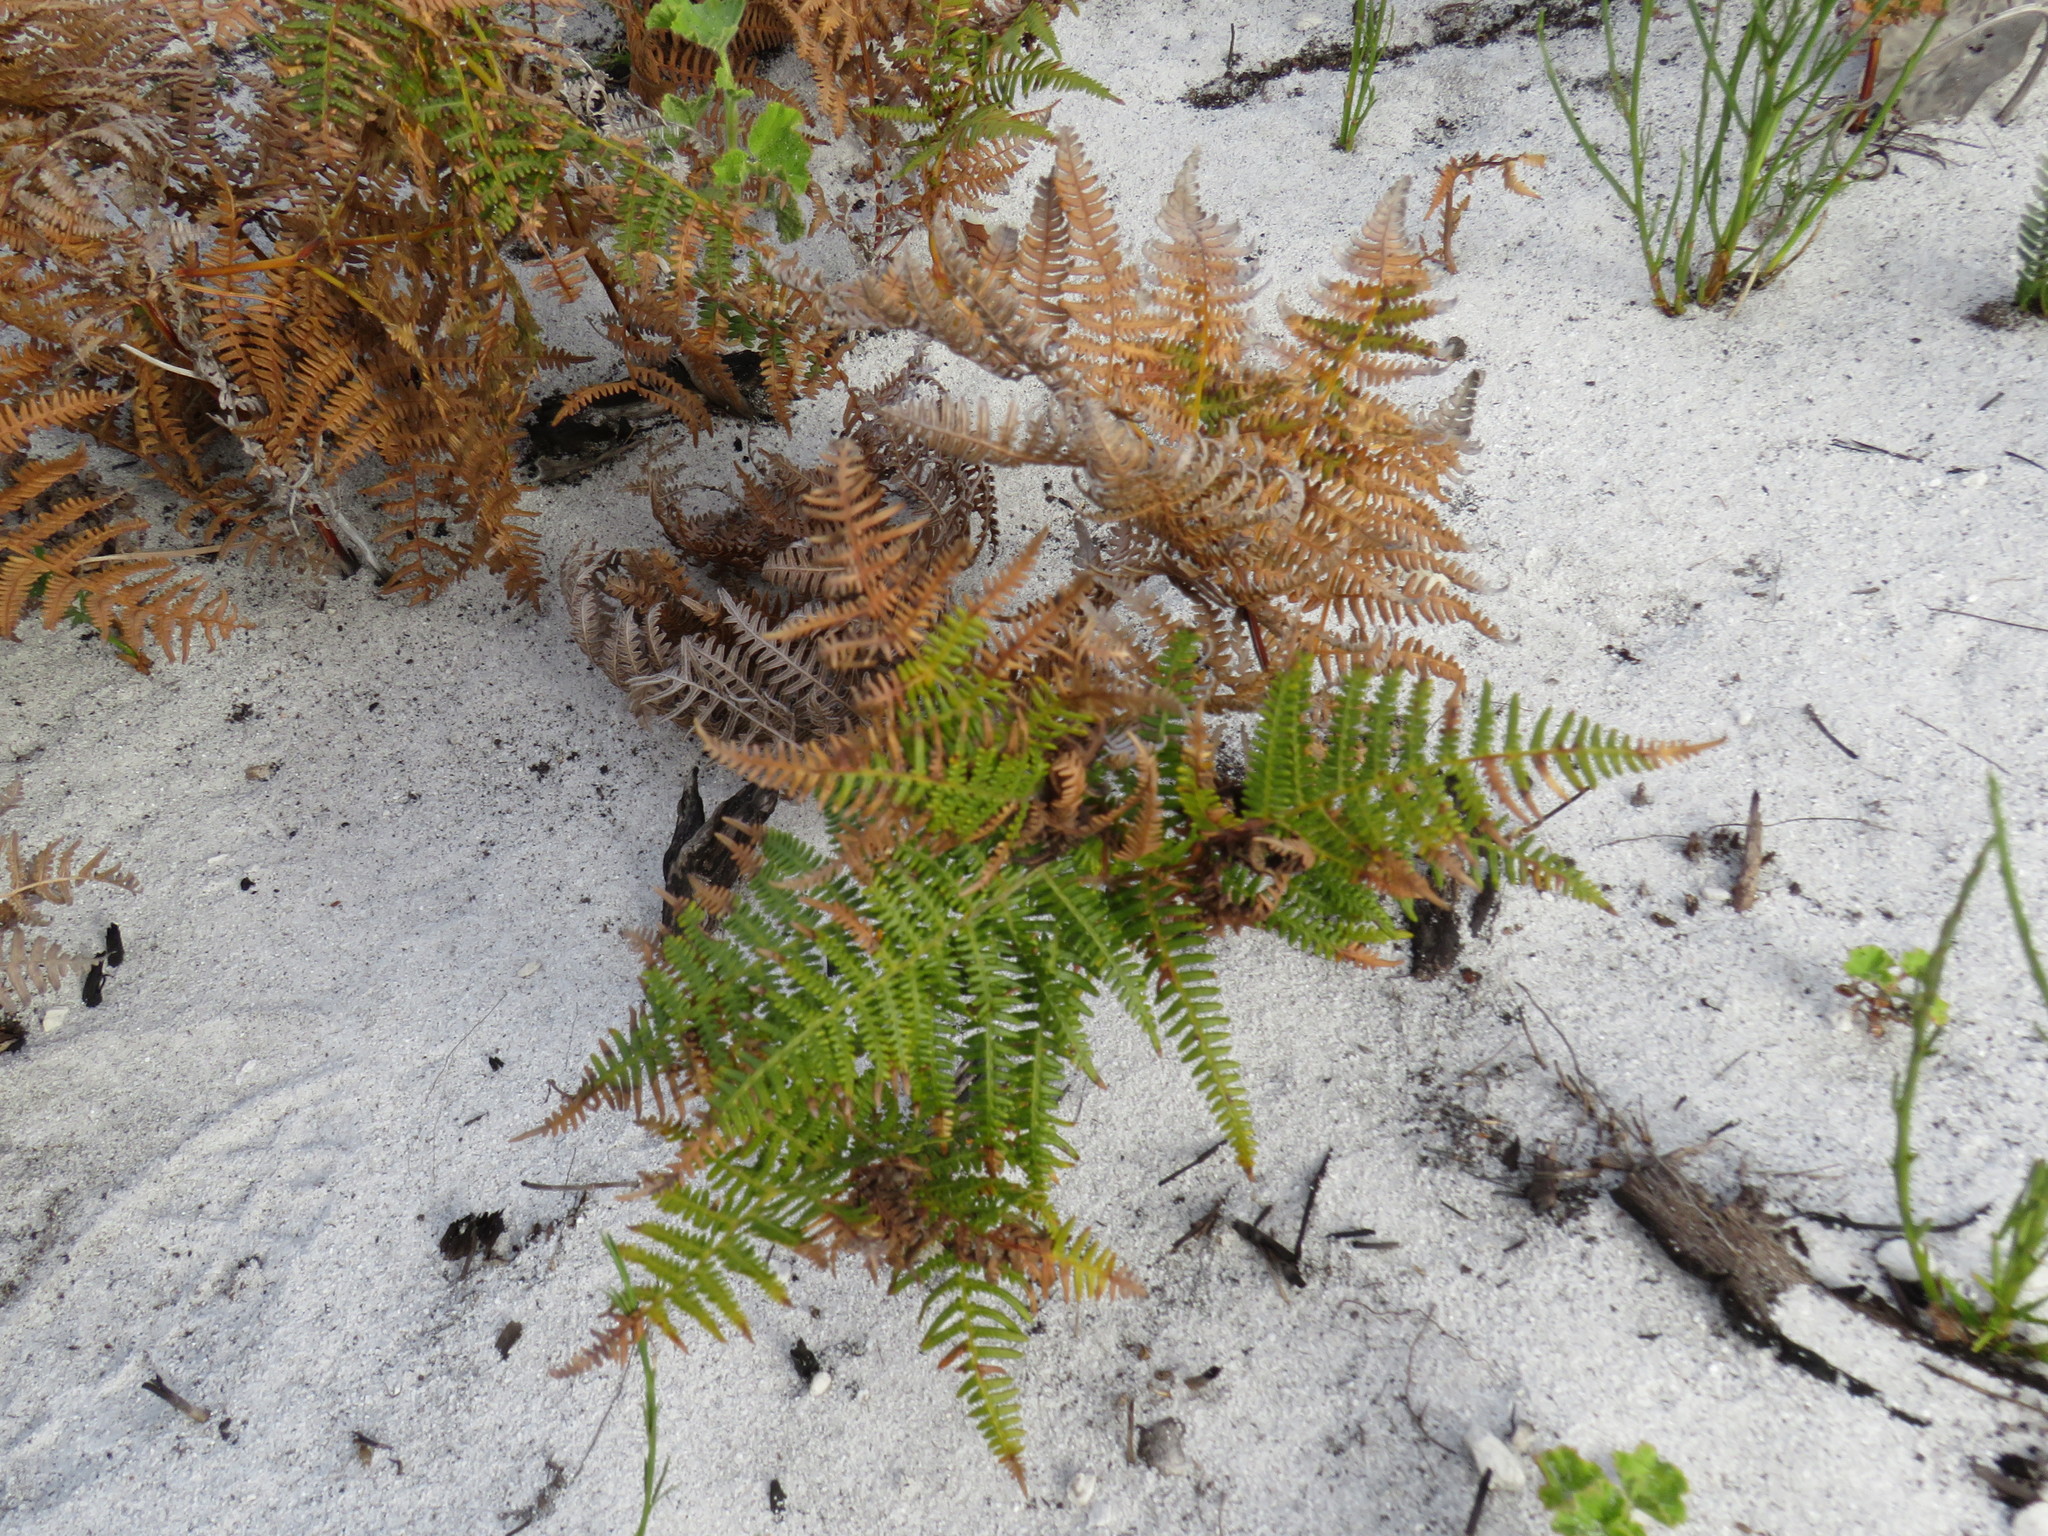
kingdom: Plantae
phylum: Tracheophyta
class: Polypodiopsida
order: Polypodiales
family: Dennstaedtiaceae
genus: Pteridium
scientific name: Pteridium aquilinum
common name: Bracken
